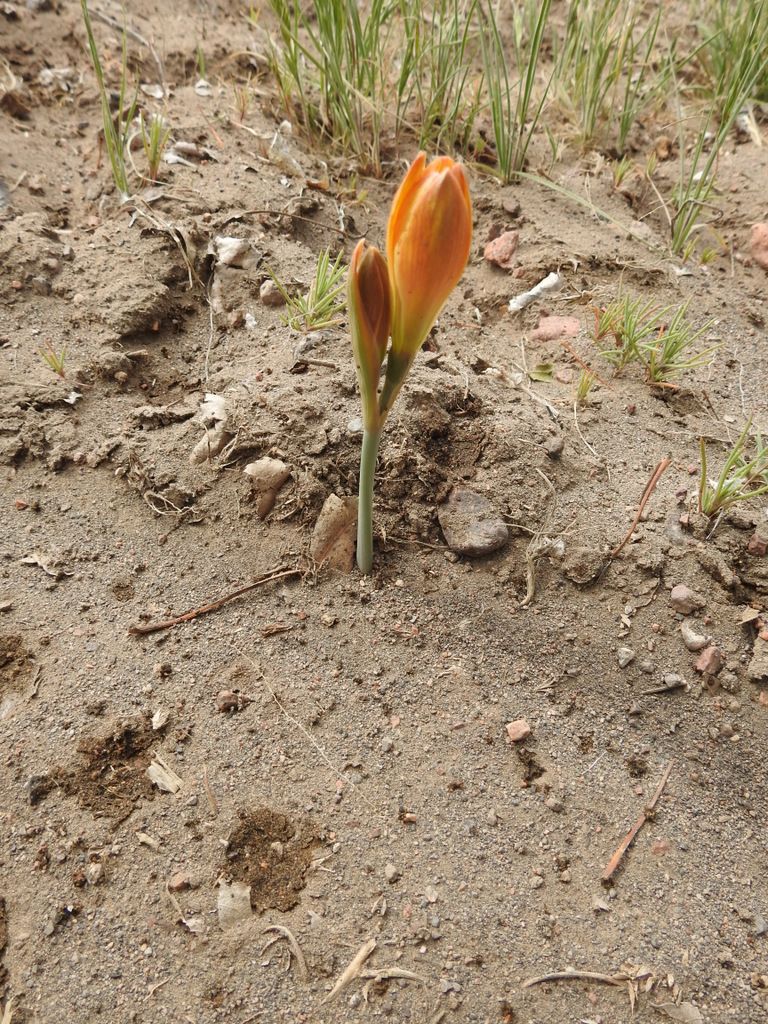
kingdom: Plantae
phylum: Tracheophyta
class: Liliopsida
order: Asparagales
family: Amaryllidaceae
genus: Zephyranthes
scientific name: Zephyranthes gilliesiana
